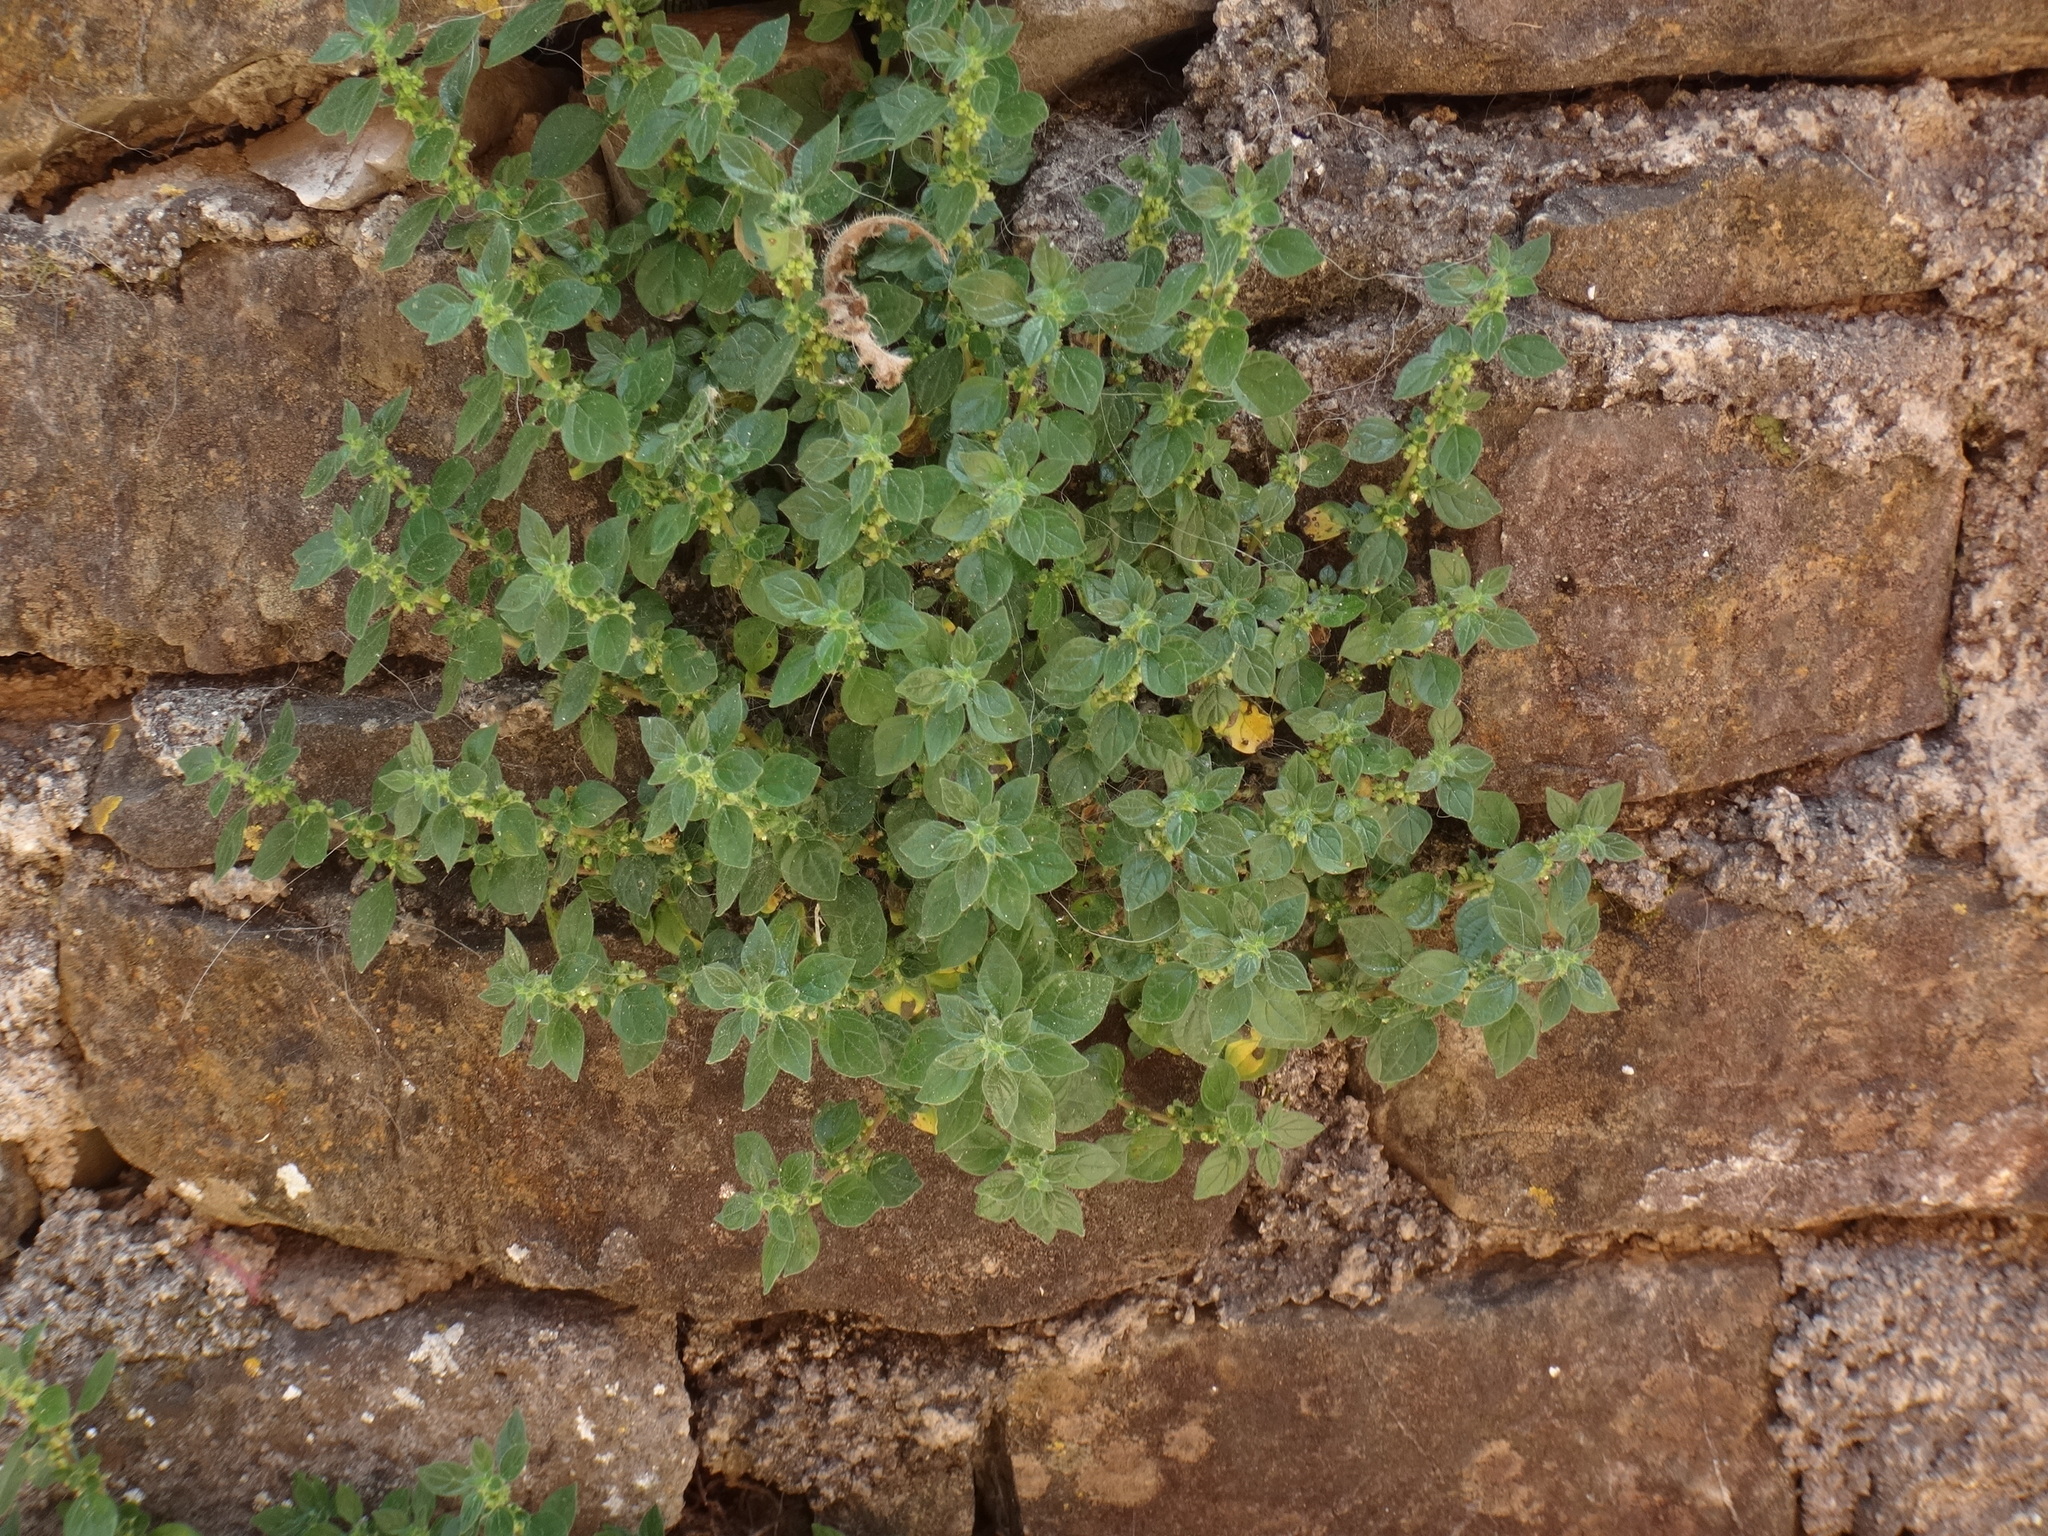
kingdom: Plantae
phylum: Tracheophyta
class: Magnoliopsida
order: Rosales
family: Urticaceae
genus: Parietaria
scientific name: Parietaria judaica
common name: Pellitory-of-the-wall
